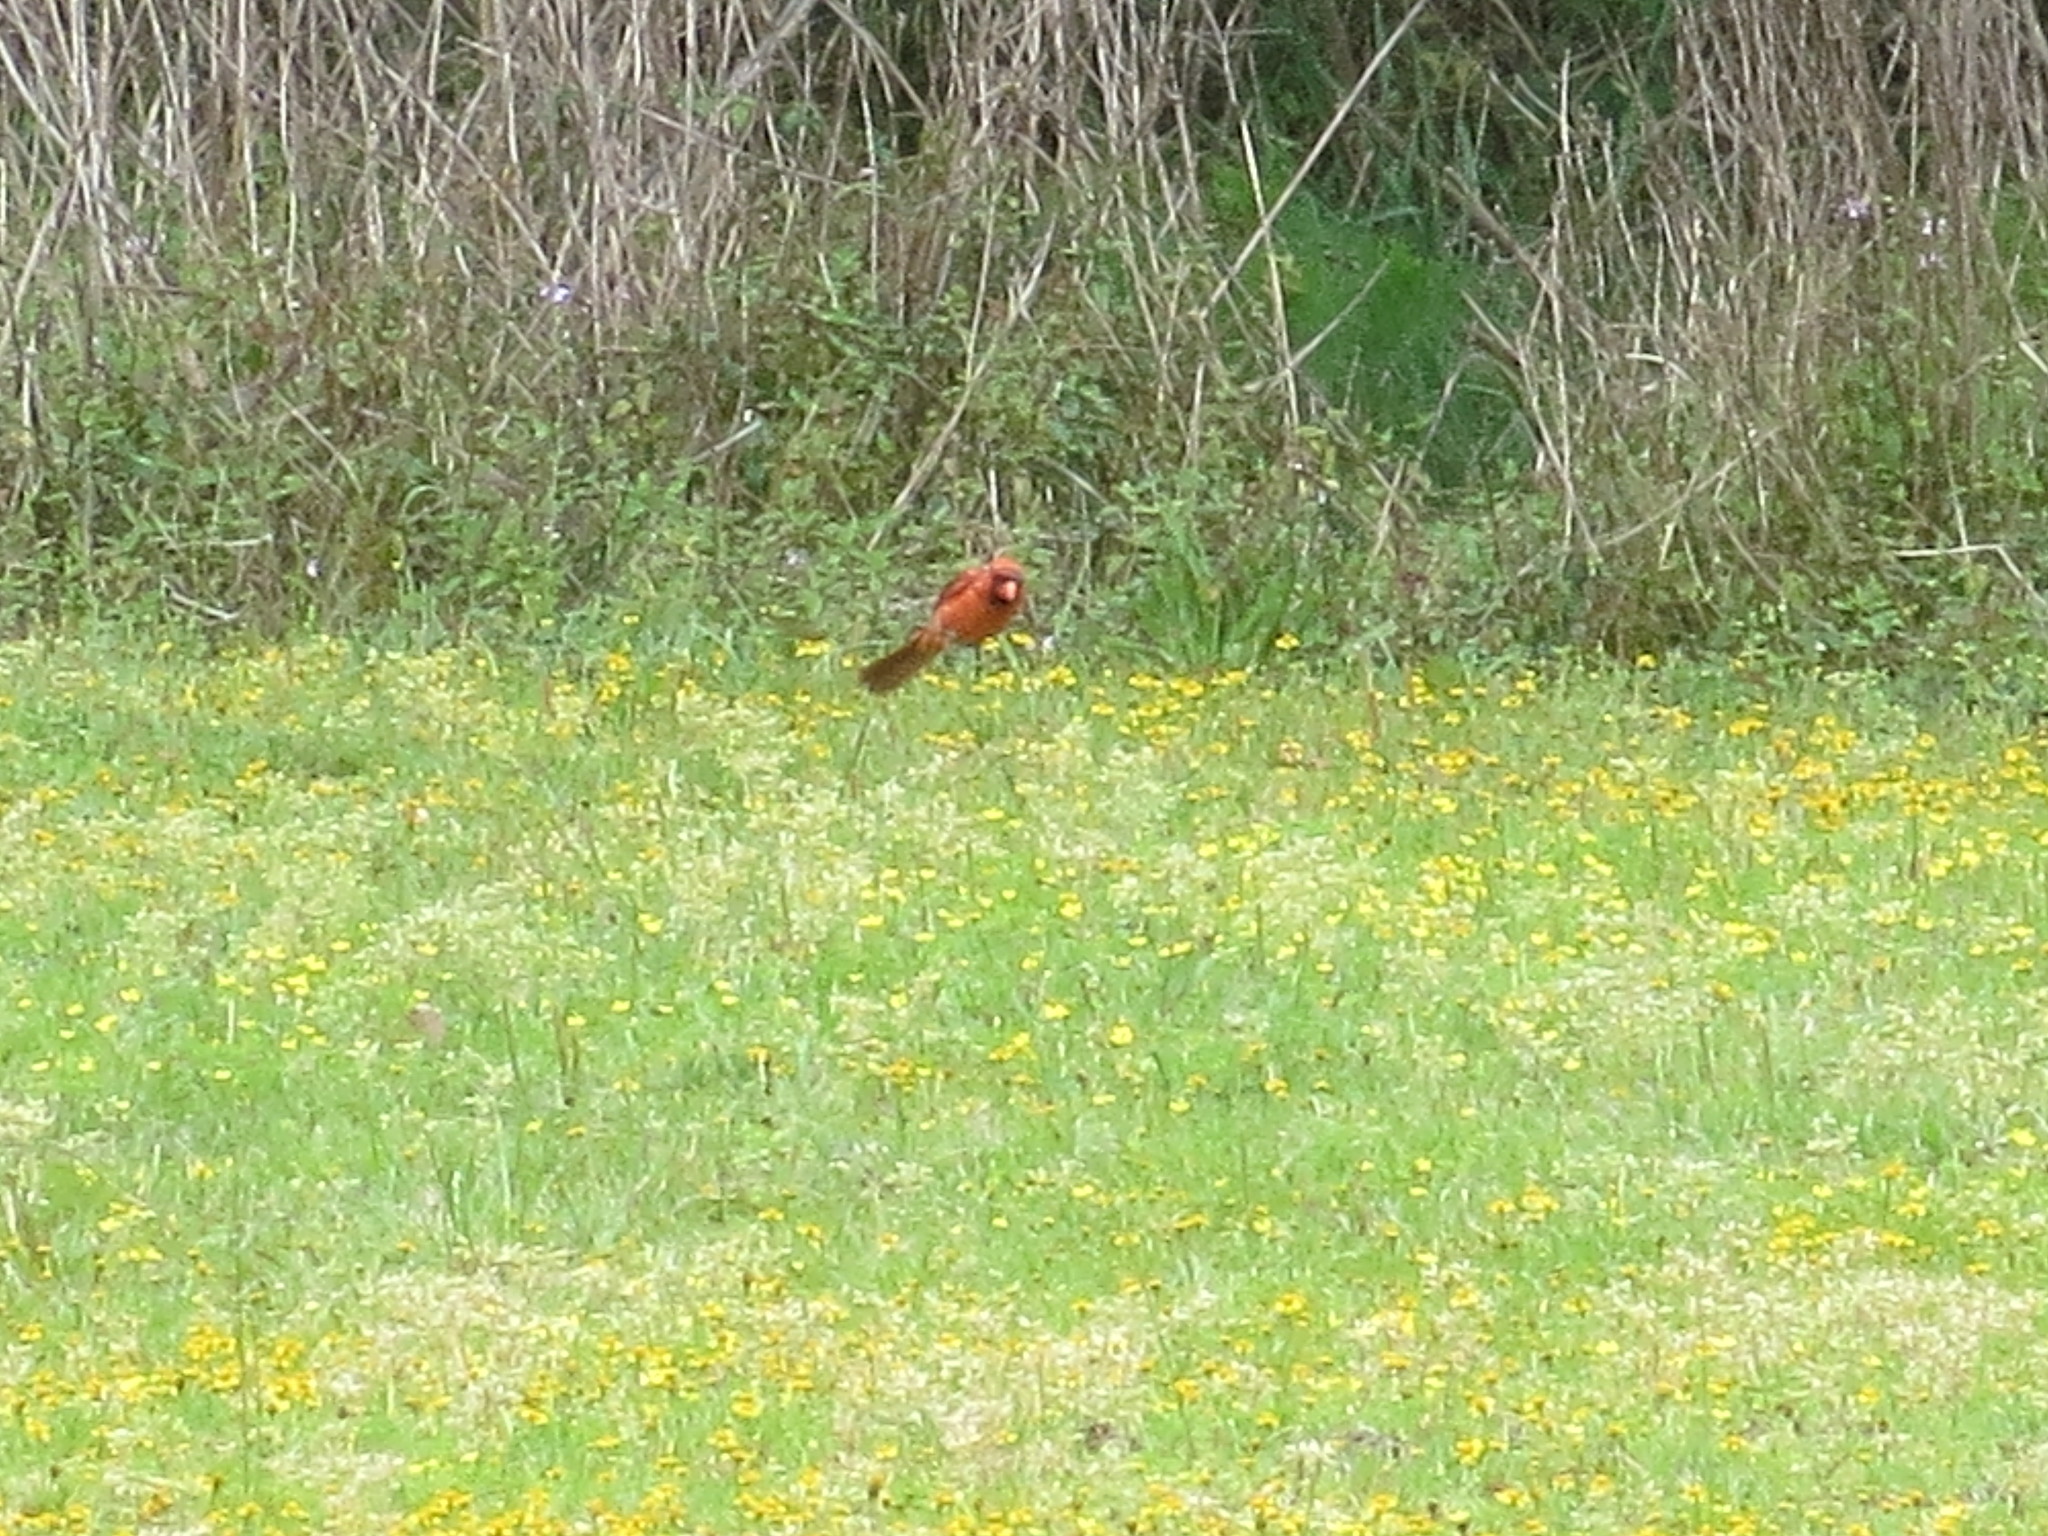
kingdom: Animalia
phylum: Chordata
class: Aves
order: Passeriformes
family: Cardinalidae
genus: Cardinalis
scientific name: Cardinalis cardinalis
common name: Northern cardinal
